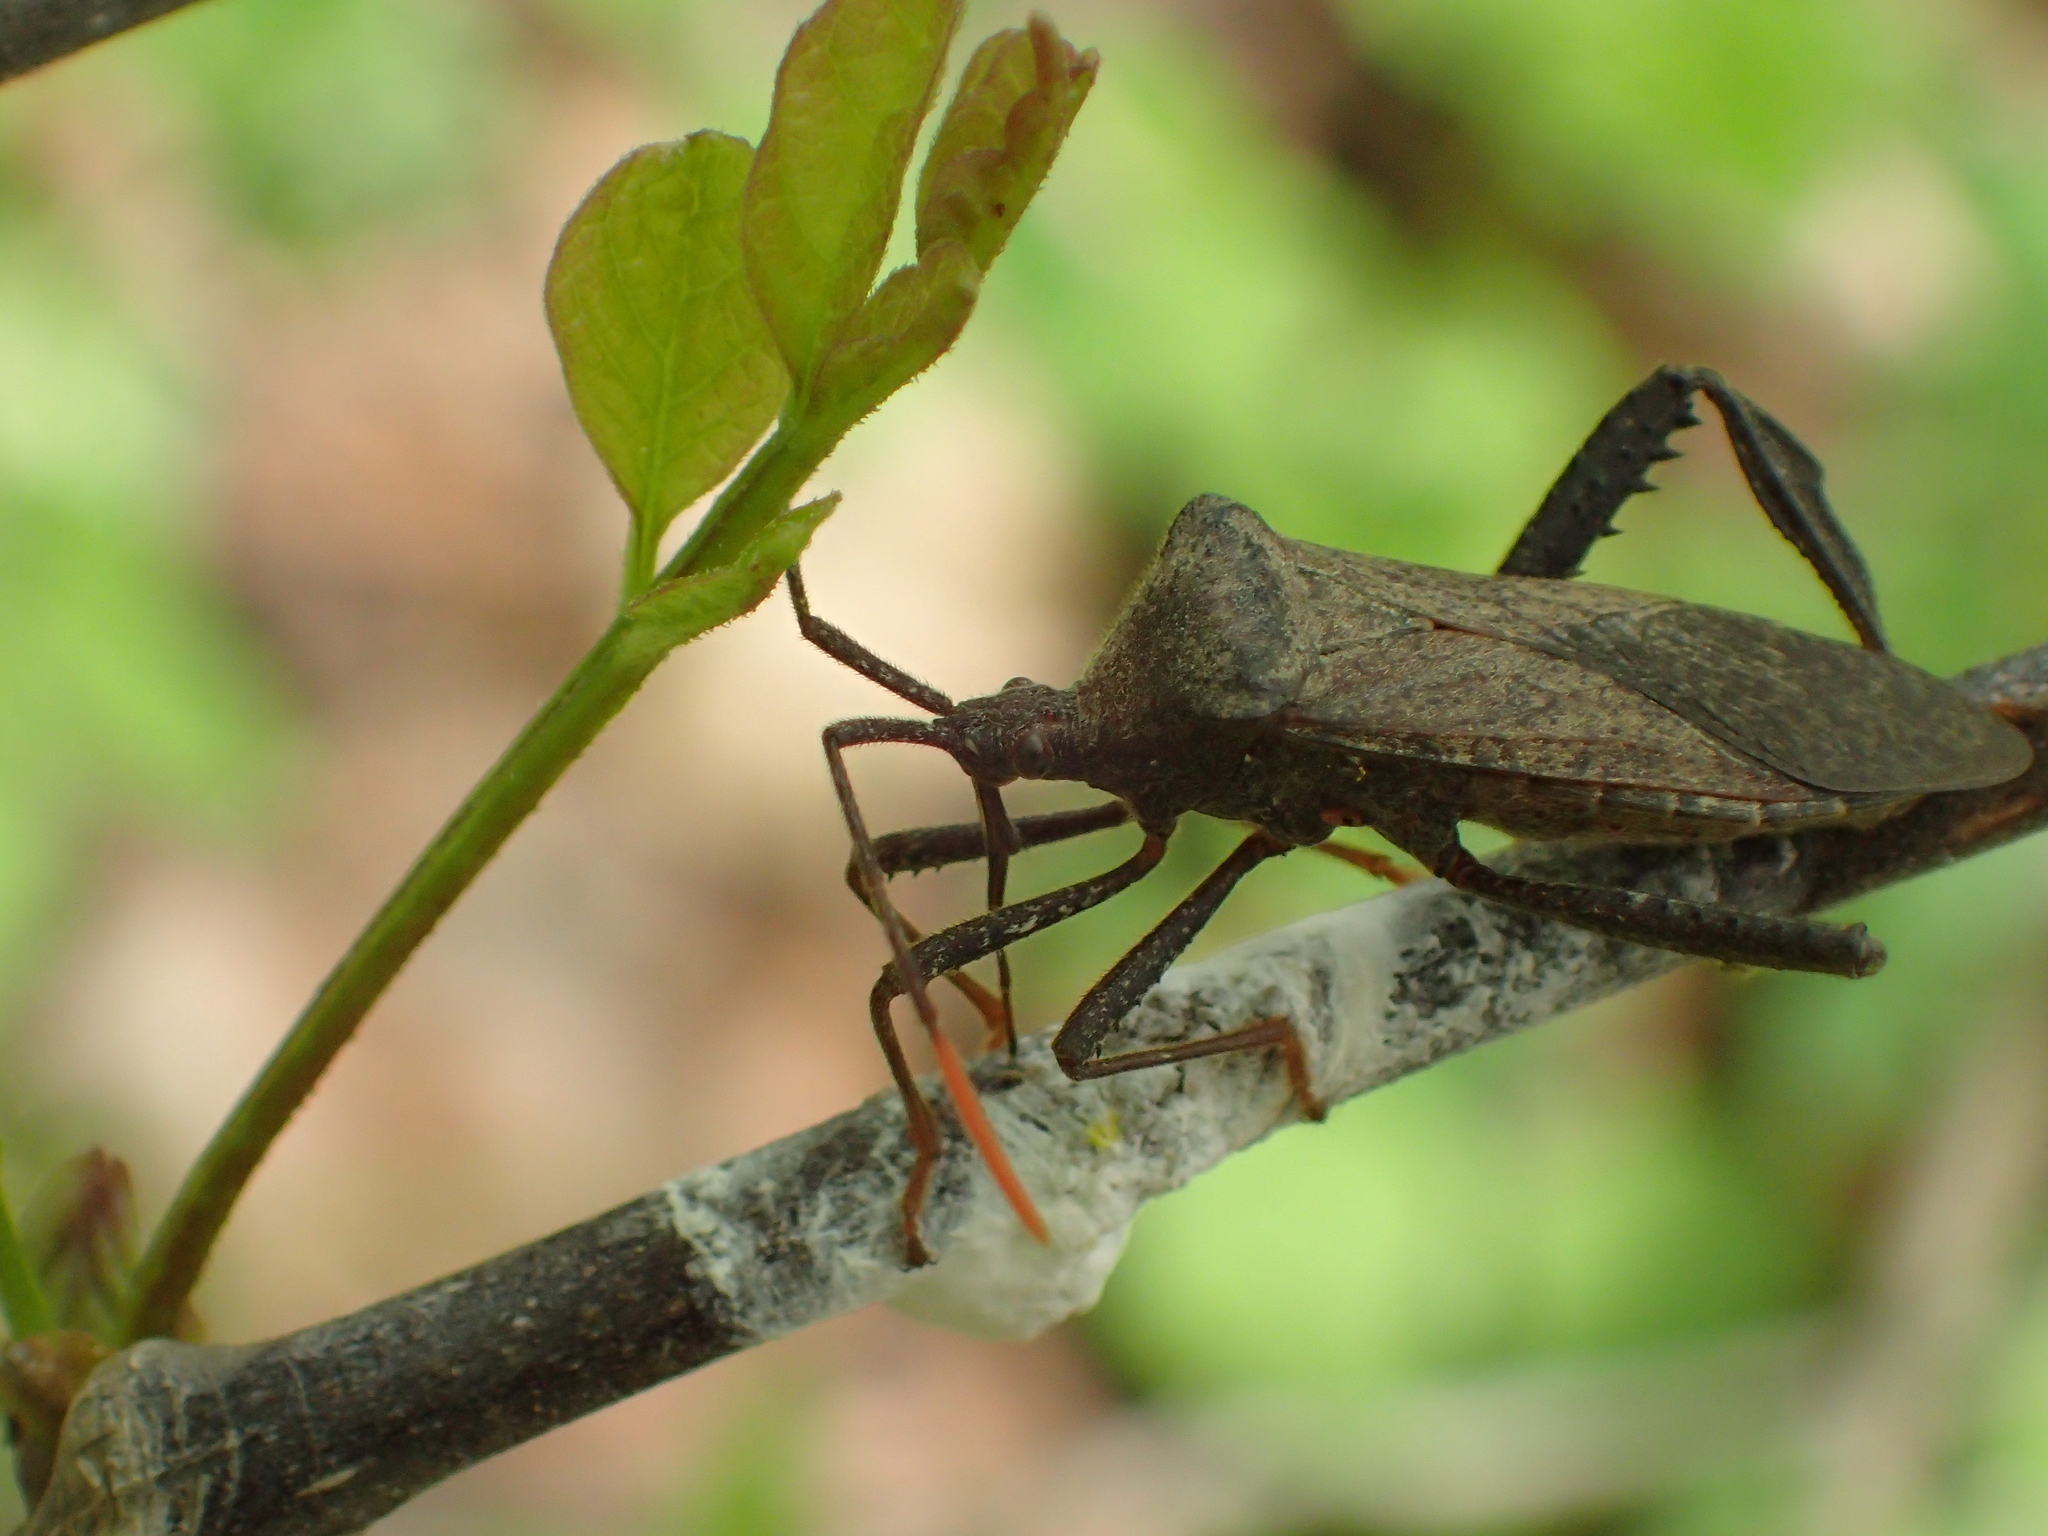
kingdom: Animalia
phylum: Arthropoda
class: Insecta
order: Hemiptera
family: Coreidae
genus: Acanthocephala
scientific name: Acanthocephala terminalis
